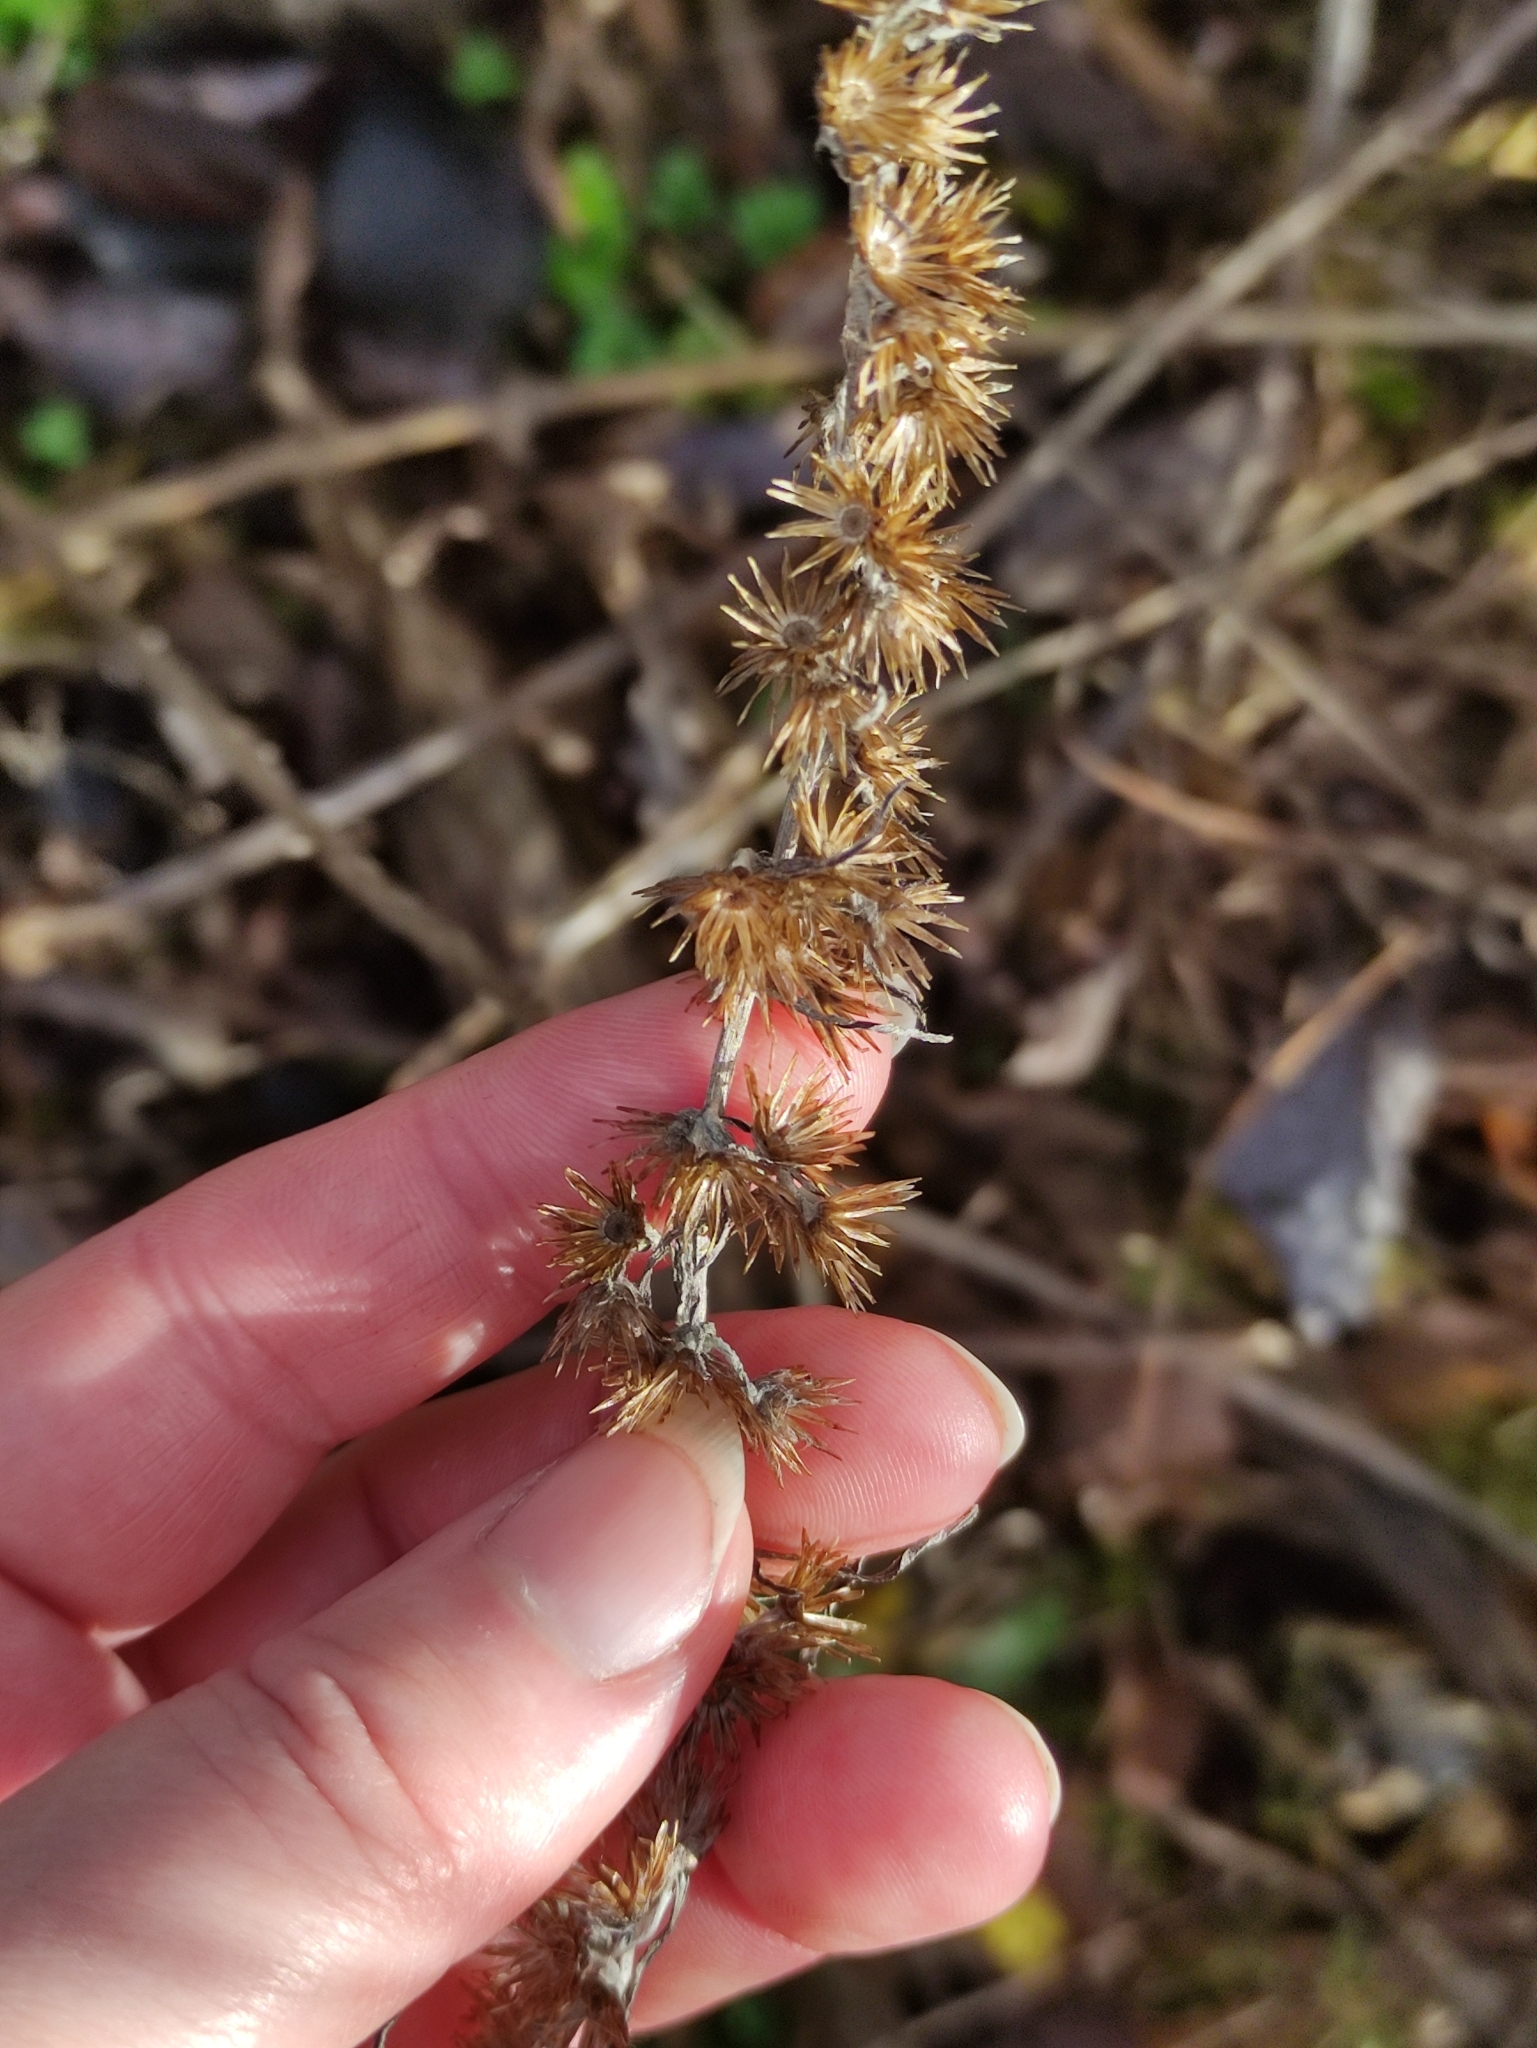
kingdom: Plantae
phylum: Tracheophyta
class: Magnoliopsida
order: Asterales
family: Asteraceae
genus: Omalotheca
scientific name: Omalotheca sylvatica
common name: Heath cudweed
